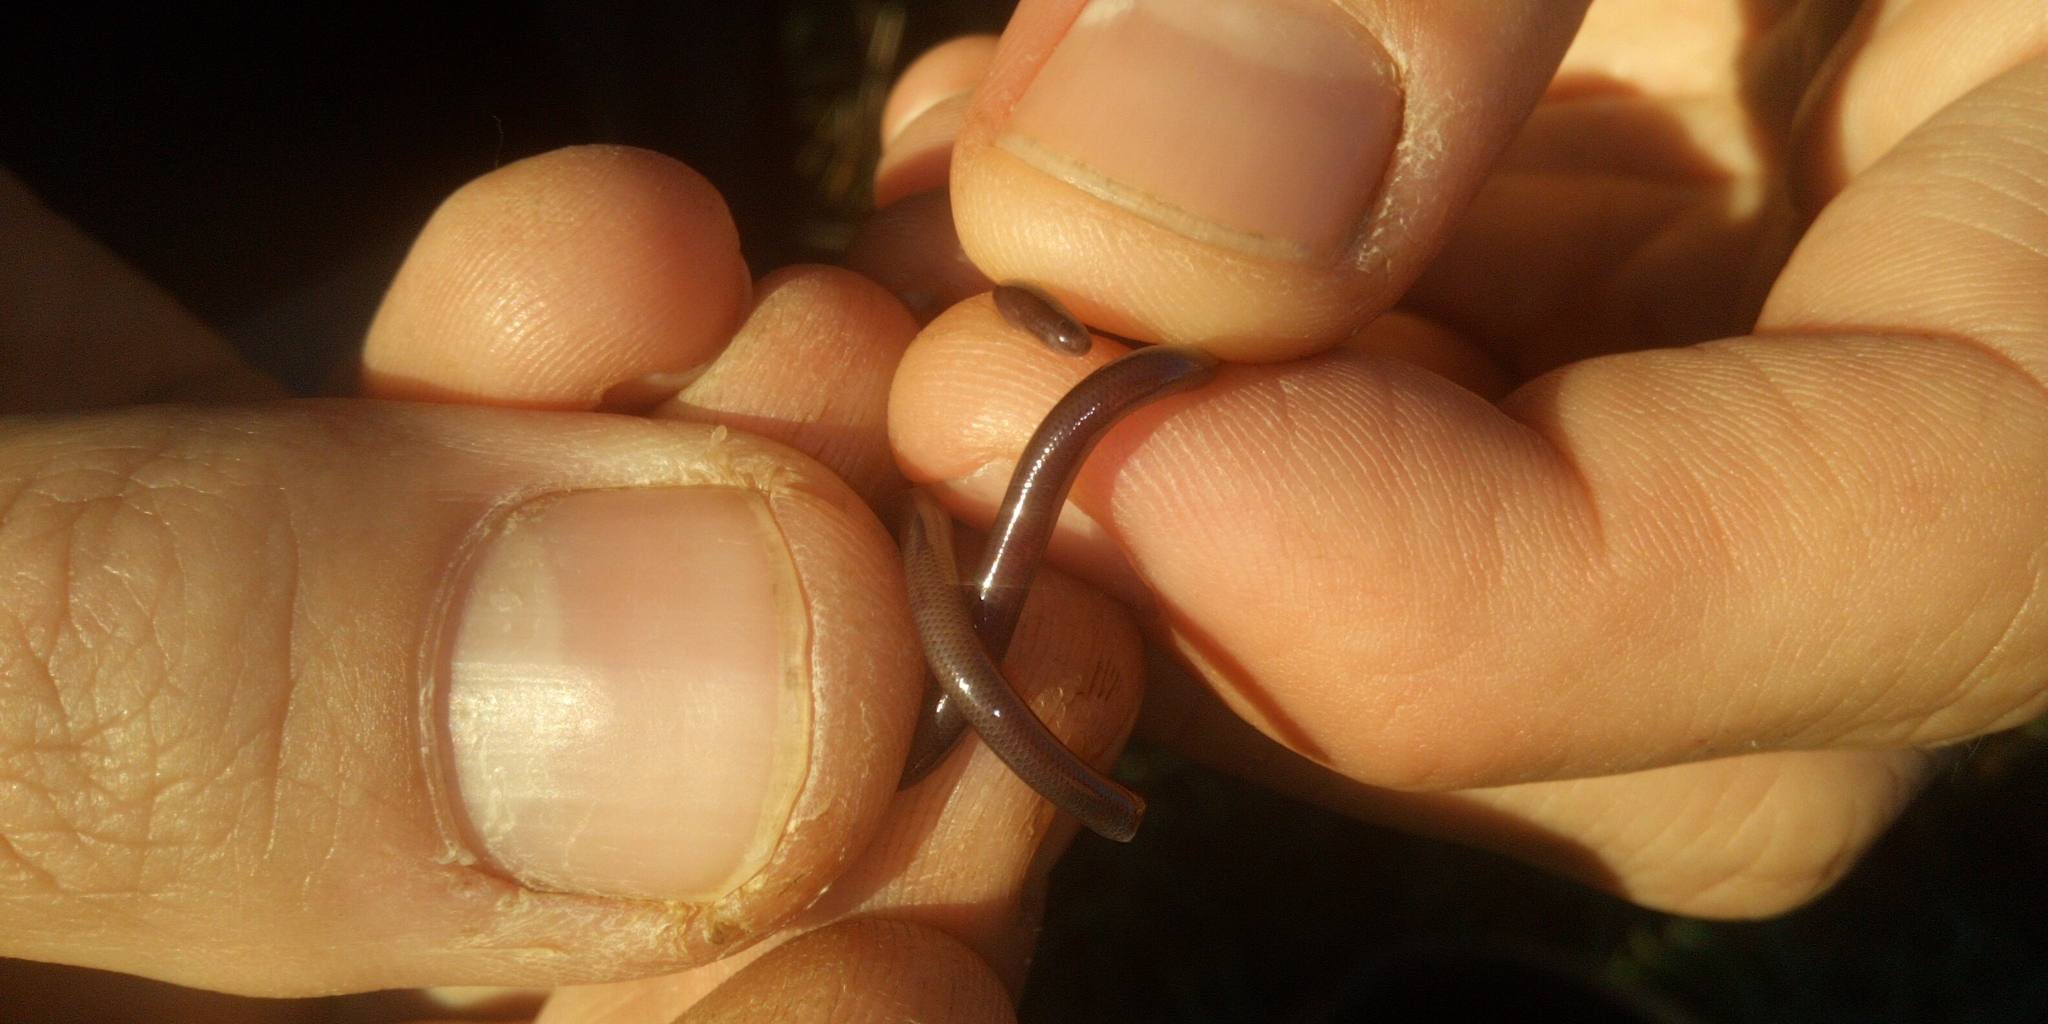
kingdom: Animalia
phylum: Chordata
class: Squamata
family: Typhlopidae
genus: Indotyphlops
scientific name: Indotyphlops braminus
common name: Brahminy blindsnake
